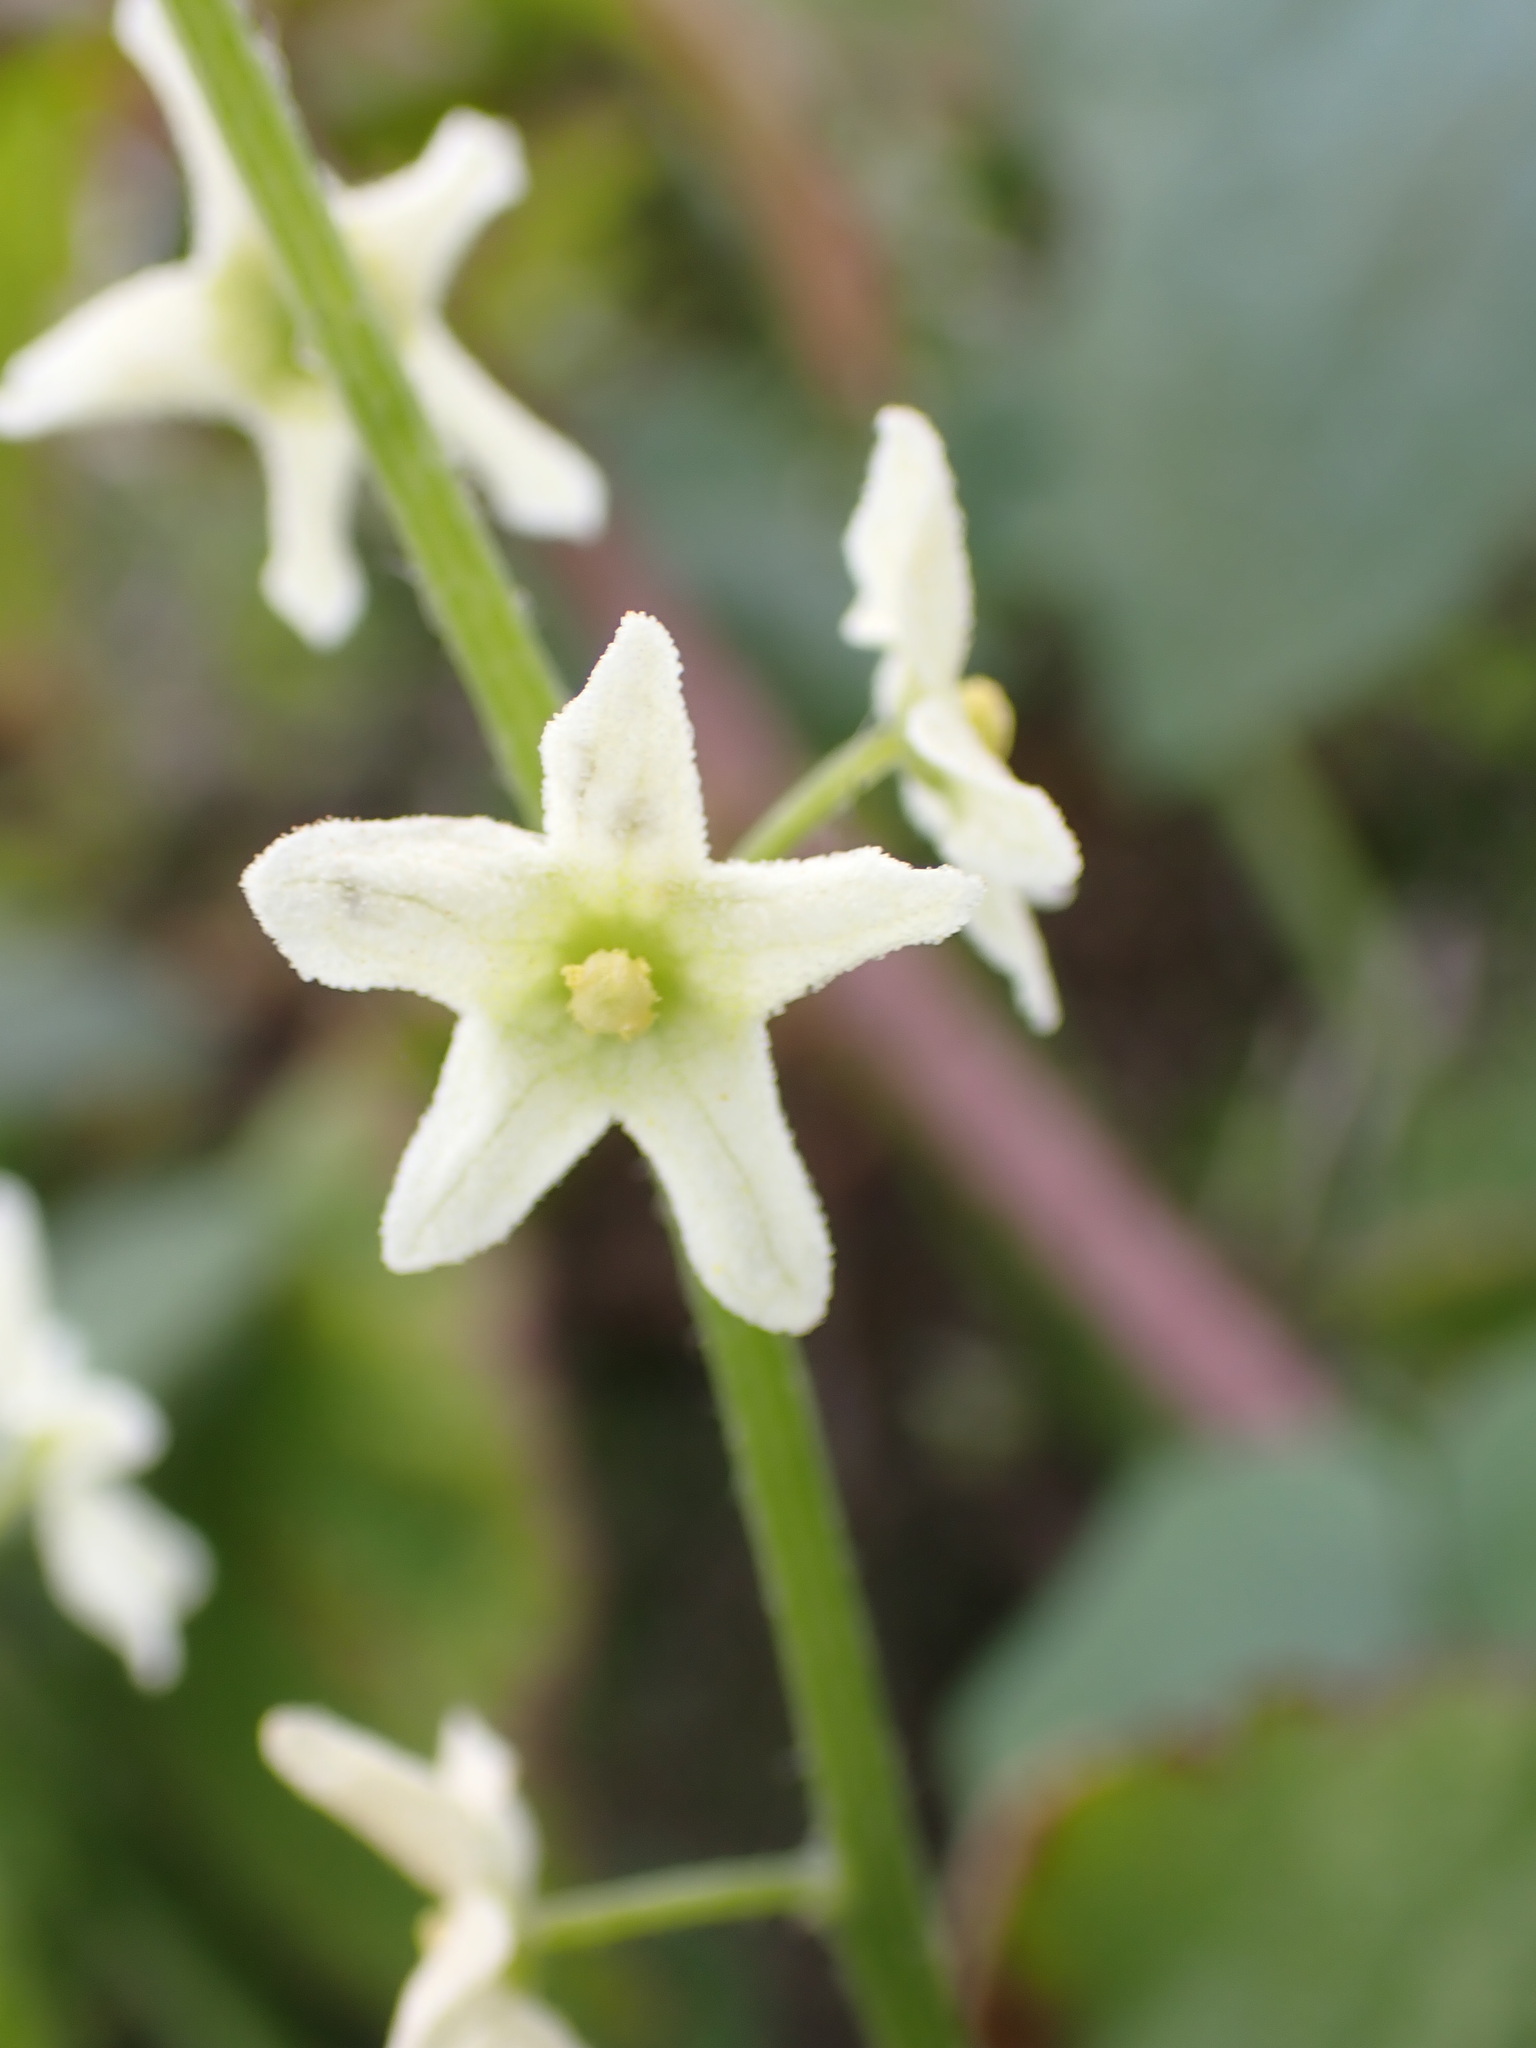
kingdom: Plantae
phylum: Tracheophyta
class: Magnoliopsida
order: Cucurbitales
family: Cucurbitaceae
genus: Marah
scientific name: Marah fabacea
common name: California manroot
